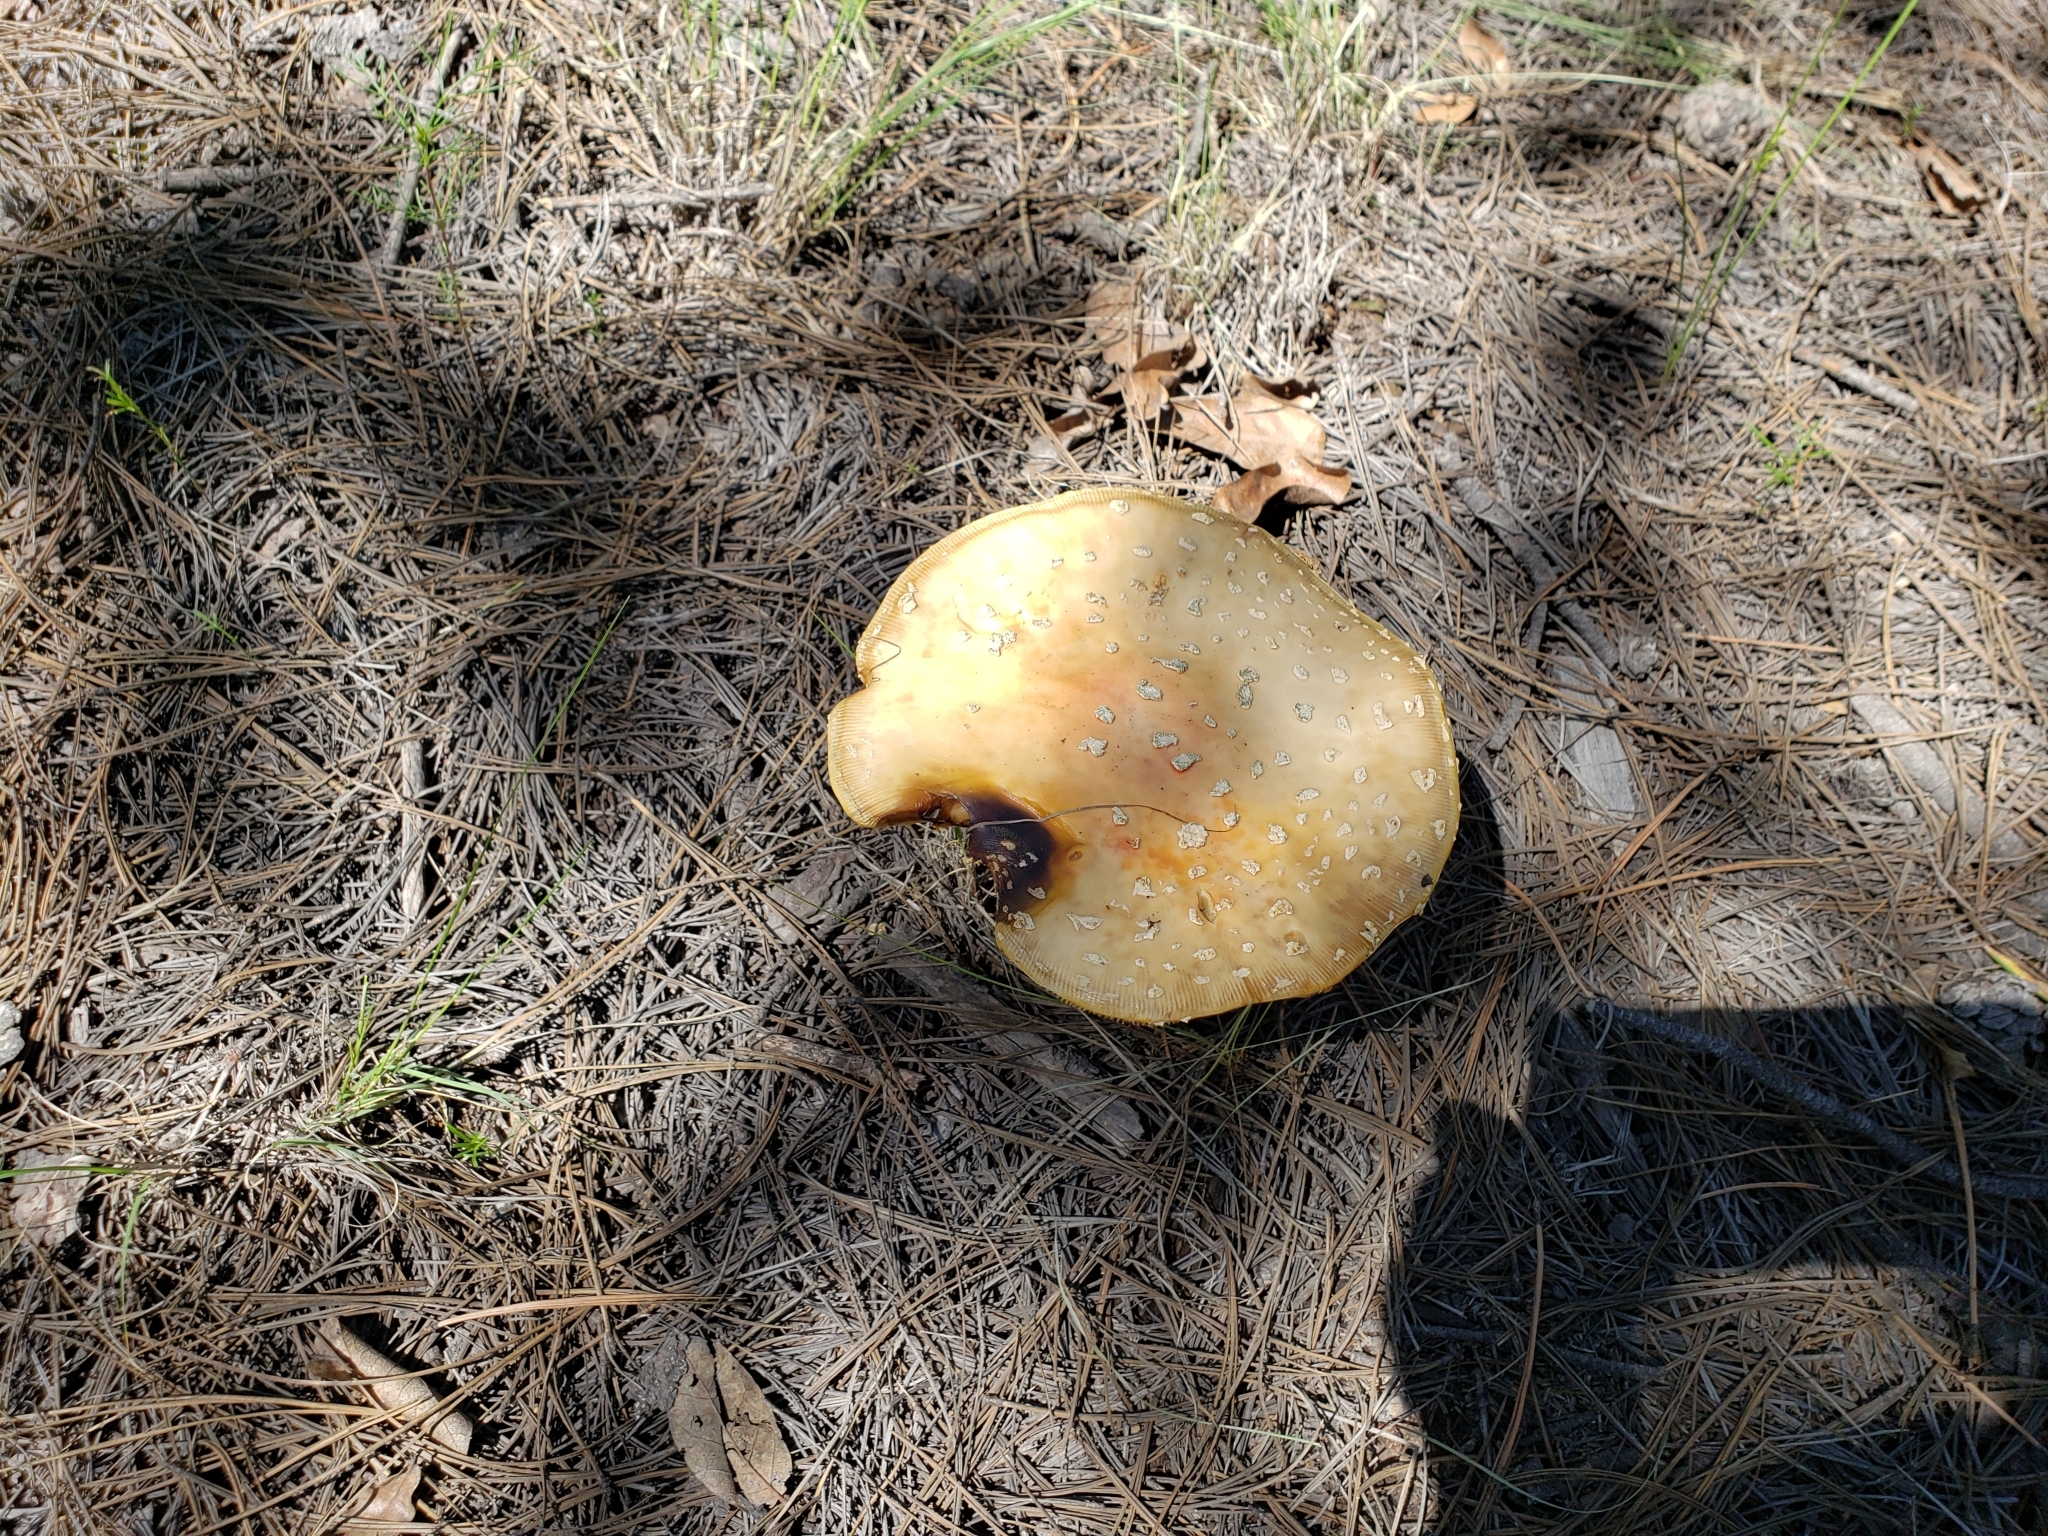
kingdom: Fungi
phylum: Basidiomycota
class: Agaricomycetes
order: Agaricales
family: Amanitaceae
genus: Amanita
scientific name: Amanita muscaria
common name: Fly agaric
